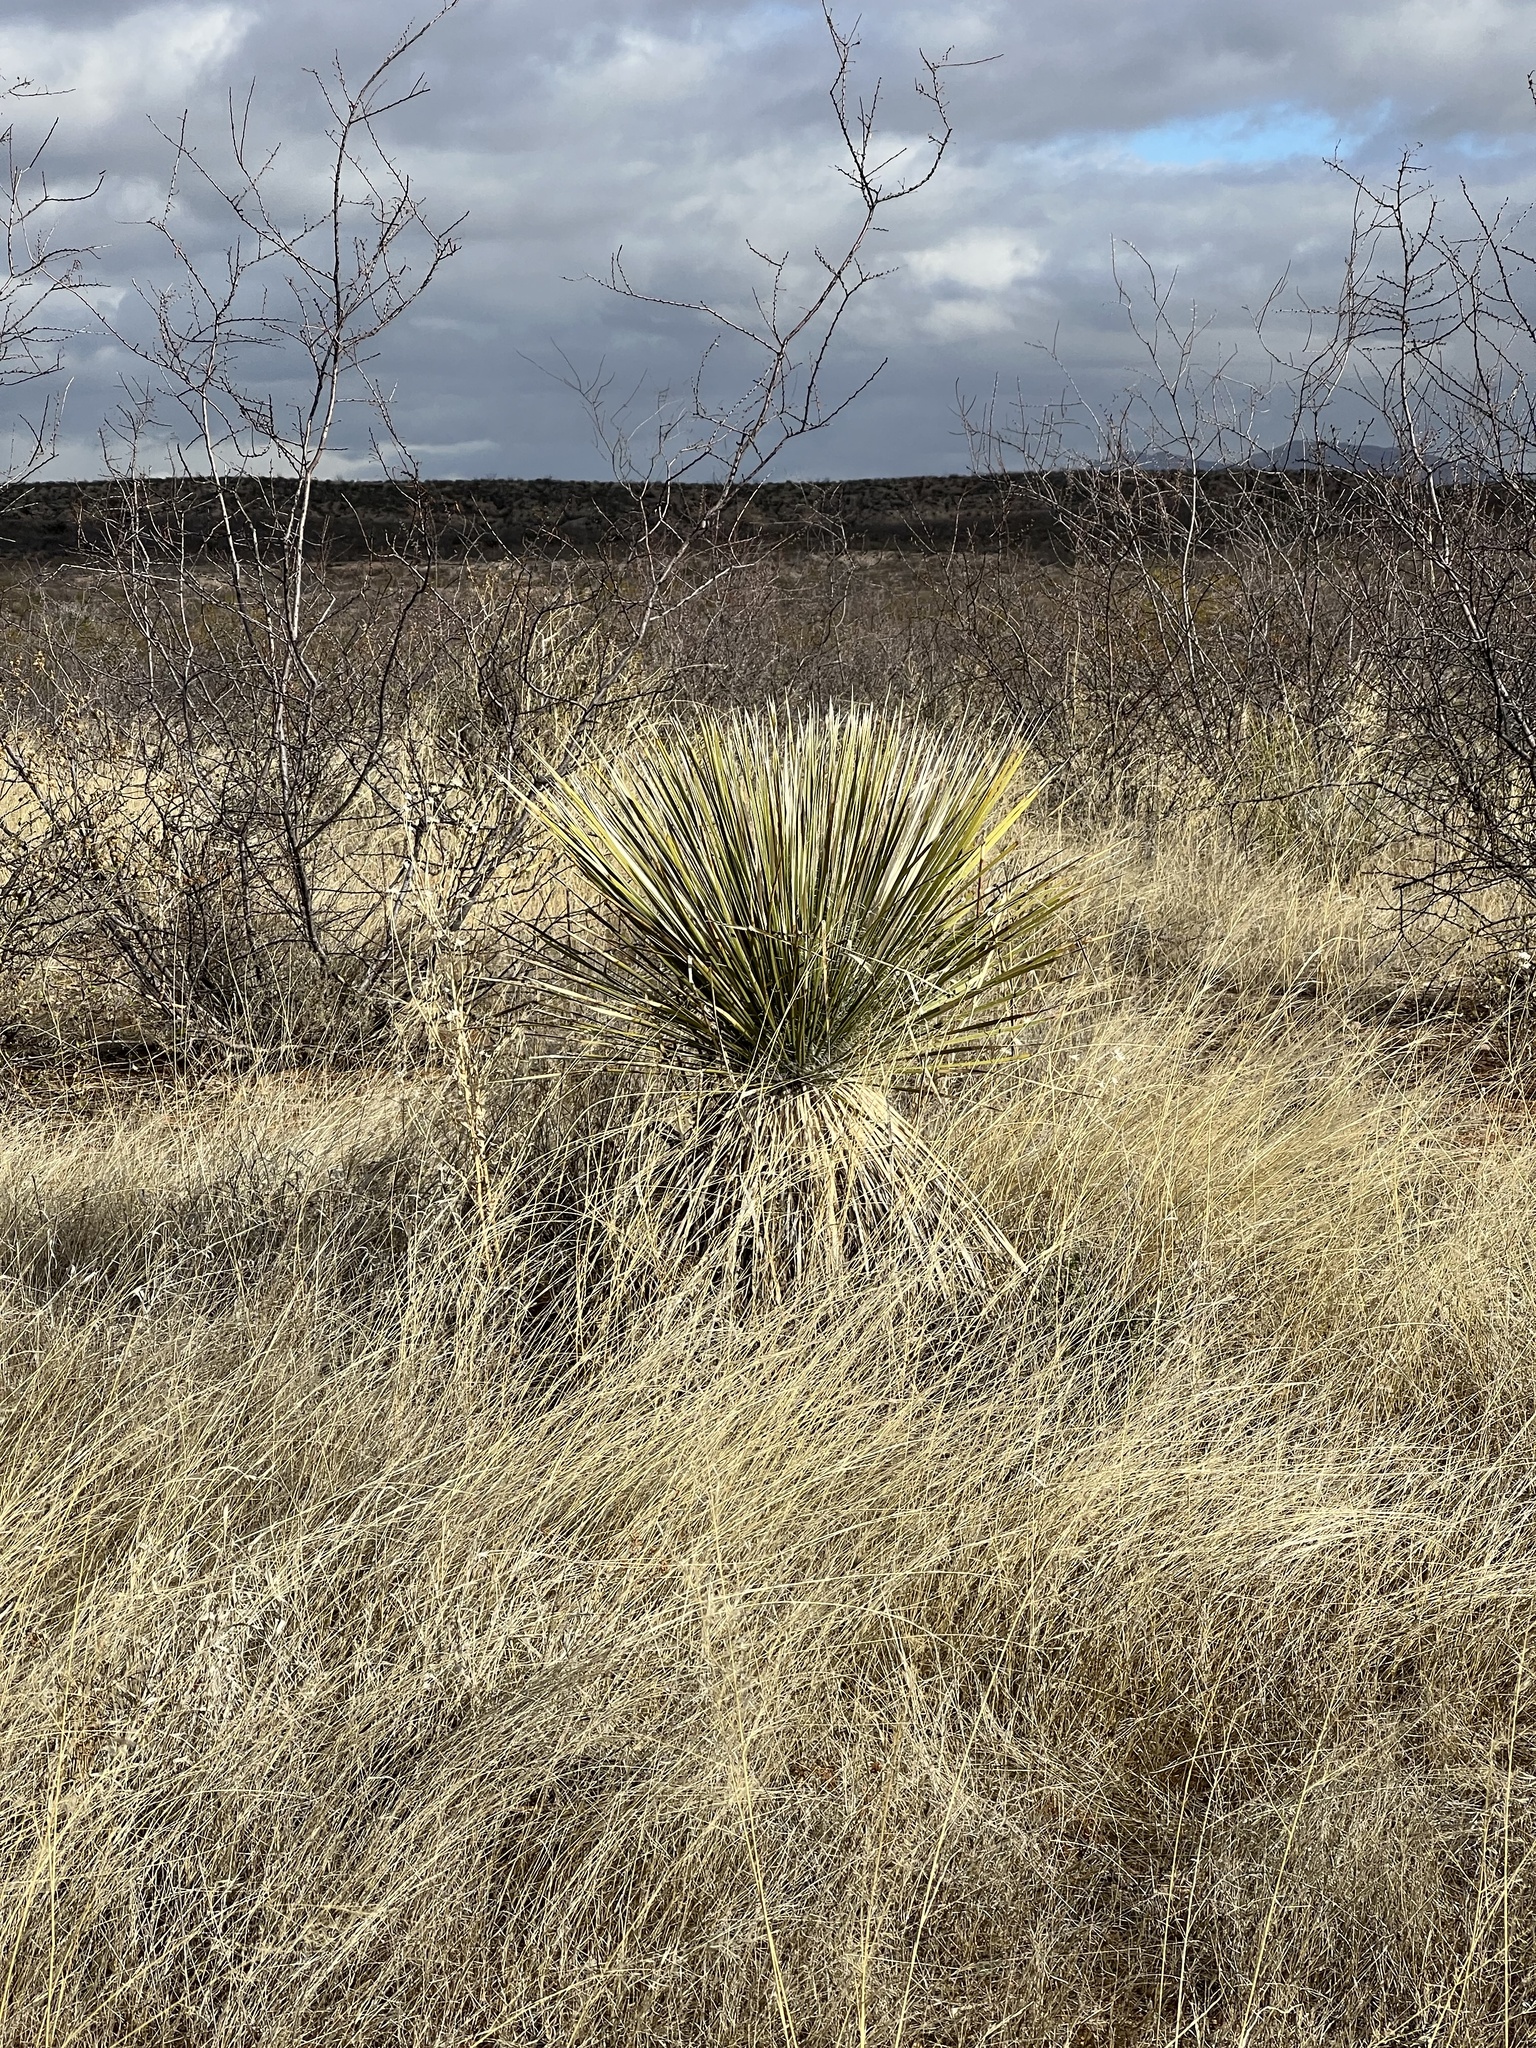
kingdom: Plantae
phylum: Tracheophyta
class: Liliopsida
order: Asparagales
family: Asparagaceae
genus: Yucca
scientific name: Yucca elata
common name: Palmella
